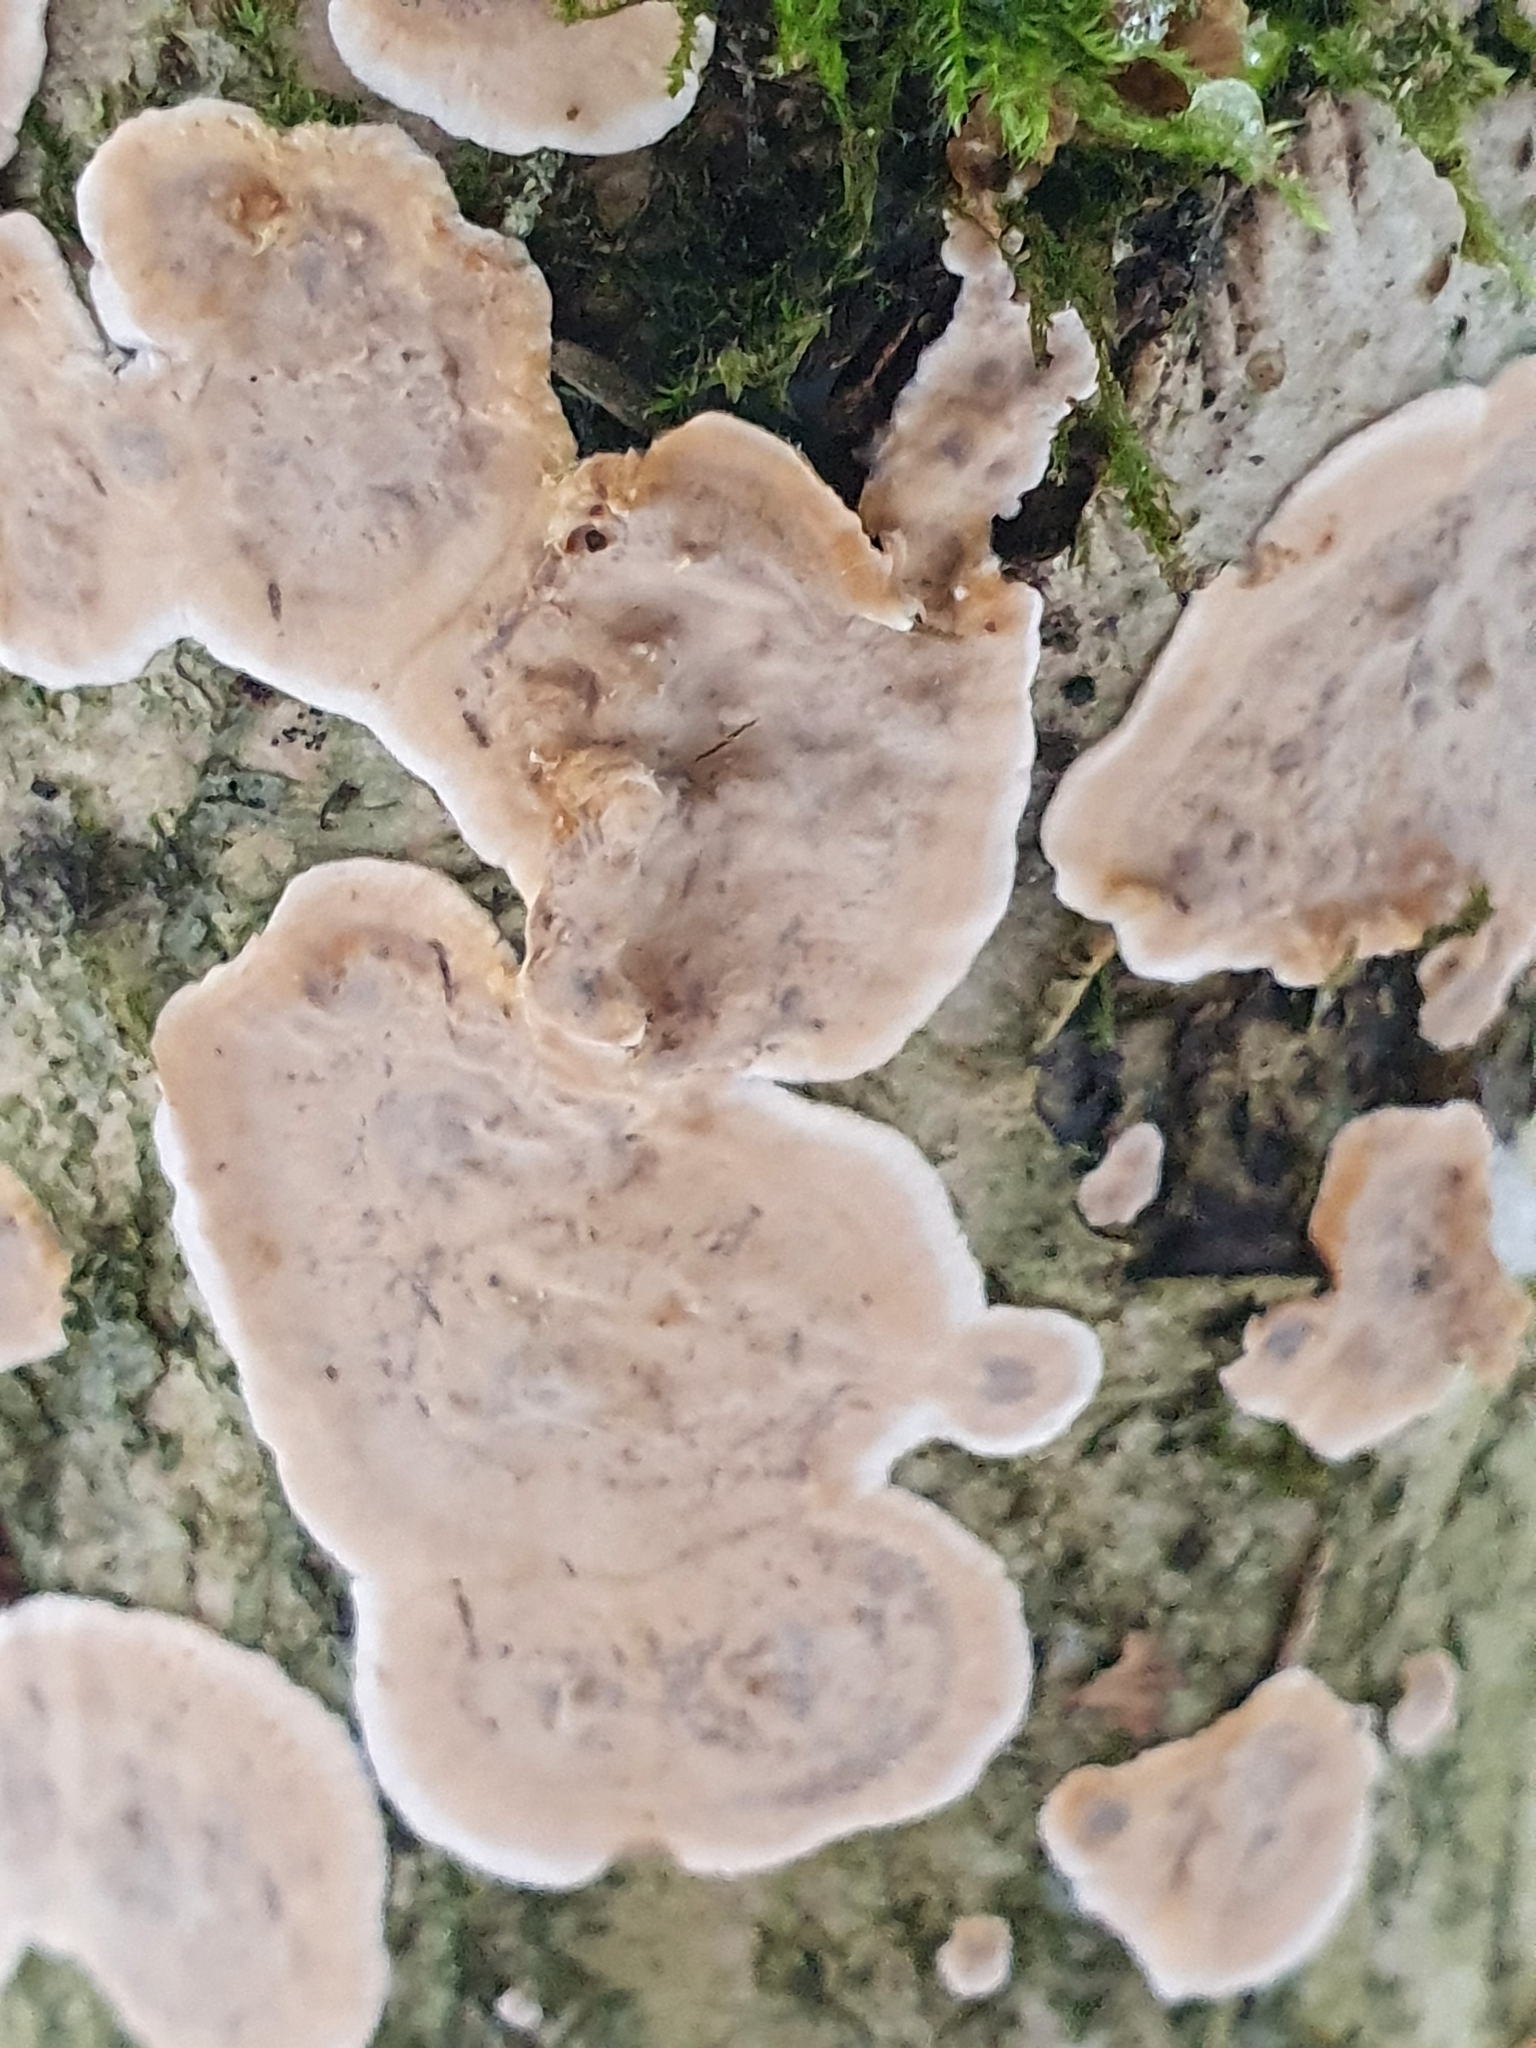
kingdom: Fungi
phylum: Basidiomycota
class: Agaricomycetes
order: Russulales
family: Stereaceae
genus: Stereum
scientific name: Stereum rugosum
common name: Bleeding broadleaf crust
